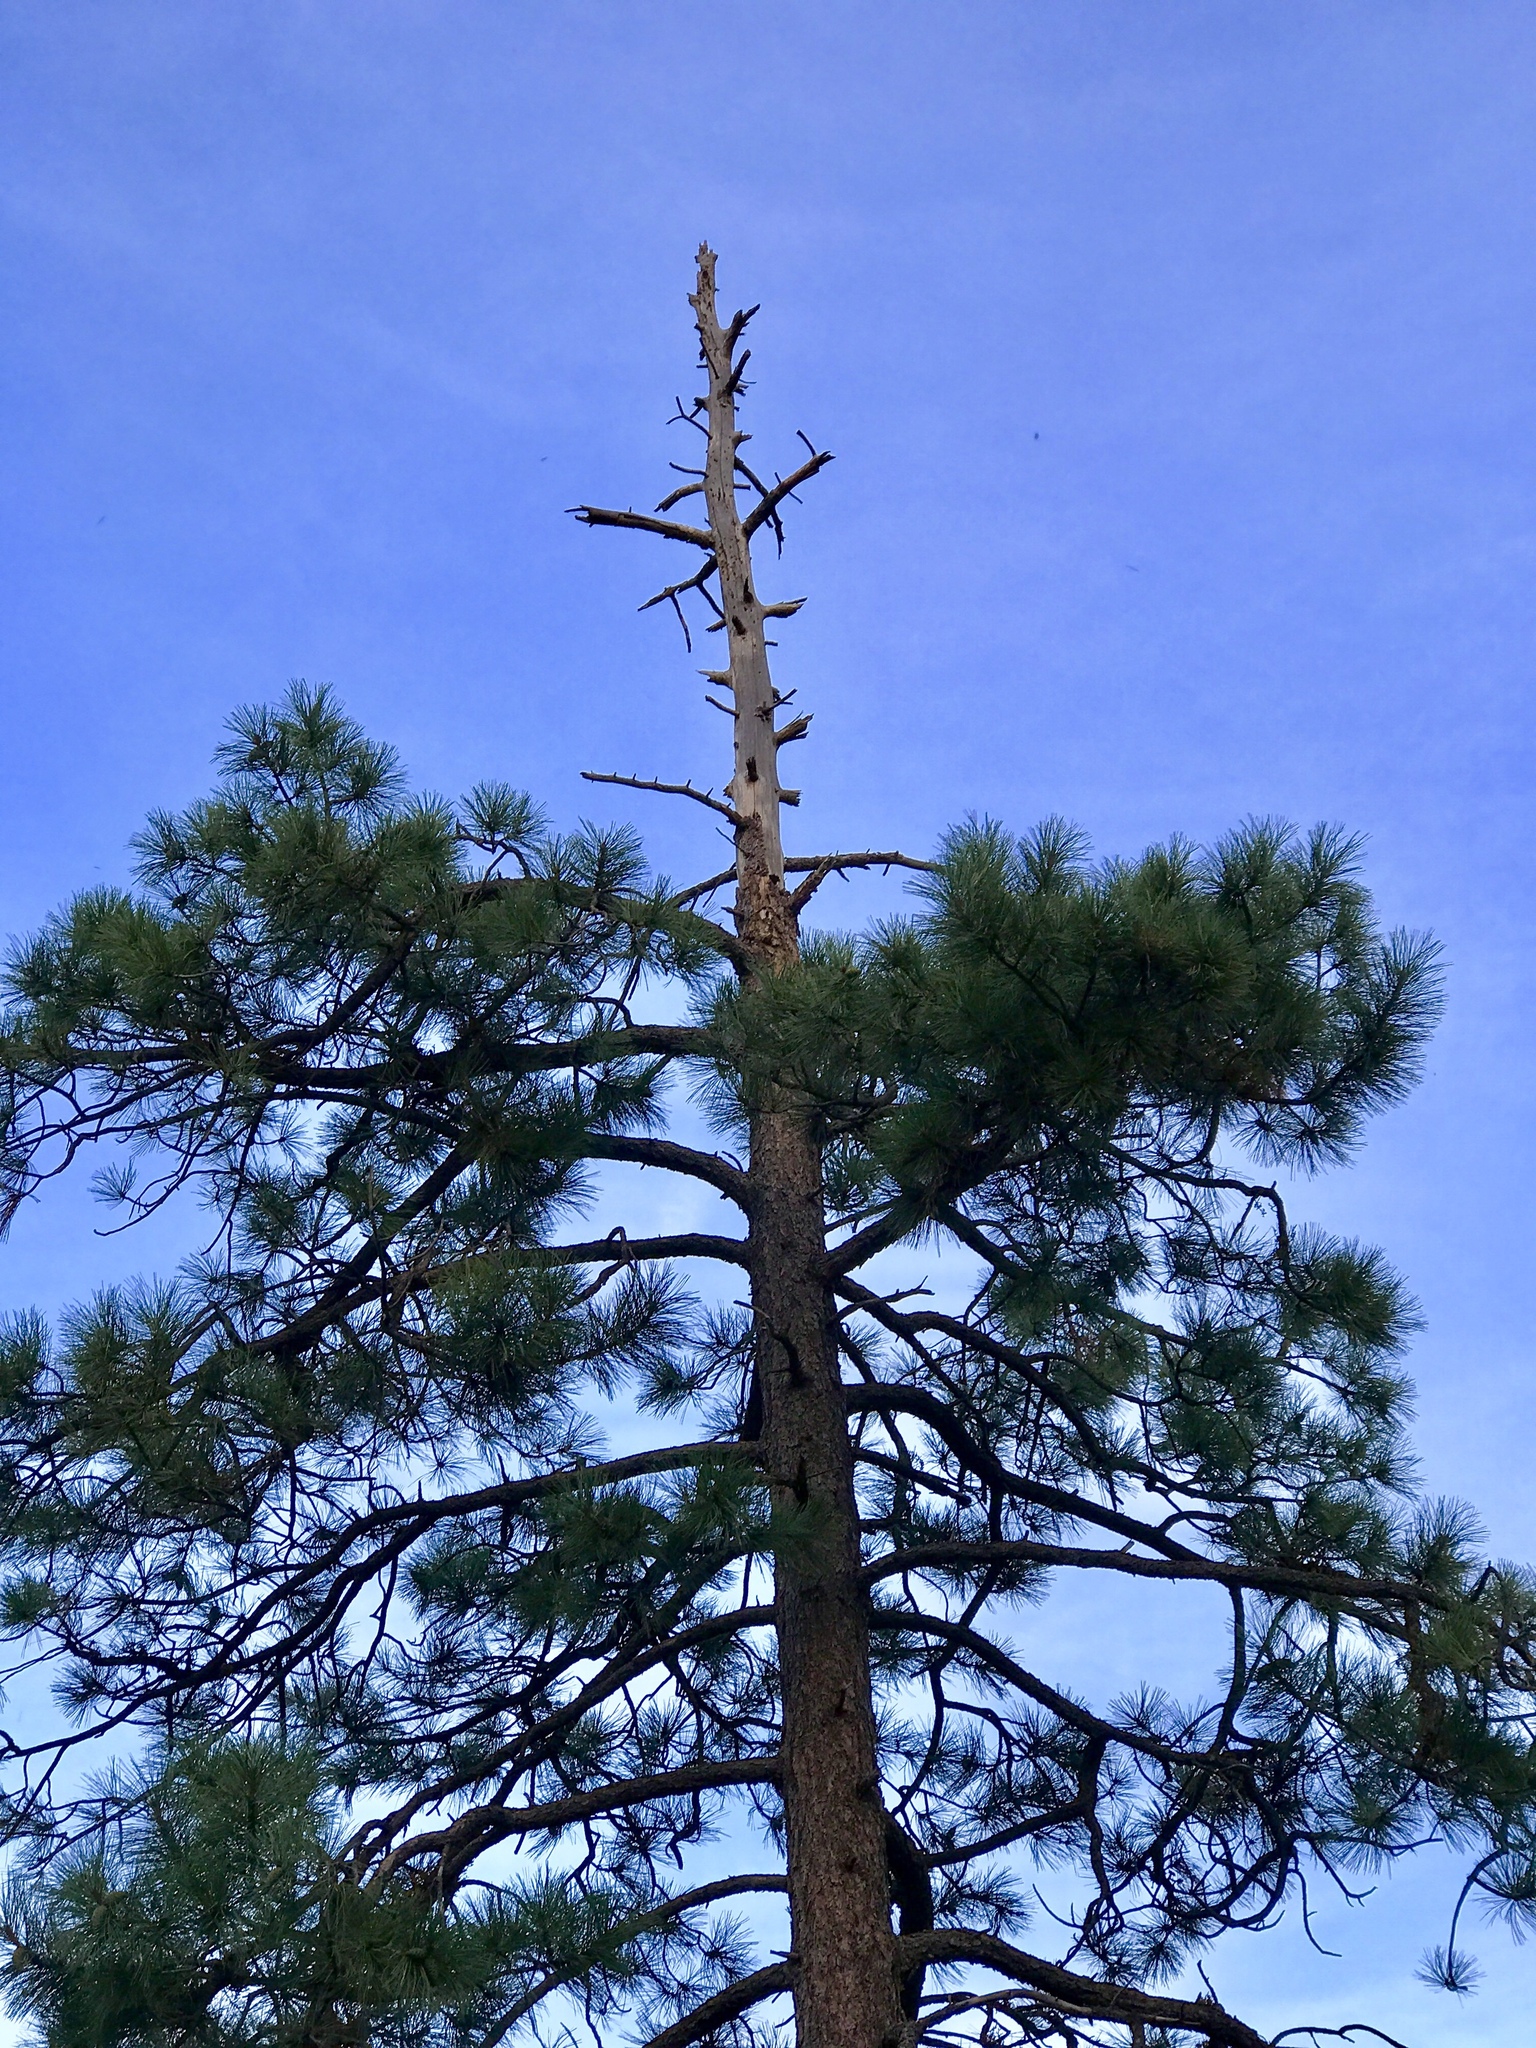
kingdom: Plantae
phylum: Tracheophyta
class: Pinopsida
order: Pinales
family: Pinaceae
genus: Pinus
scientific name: Pinus ponderosa
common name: Western yellow-pine
